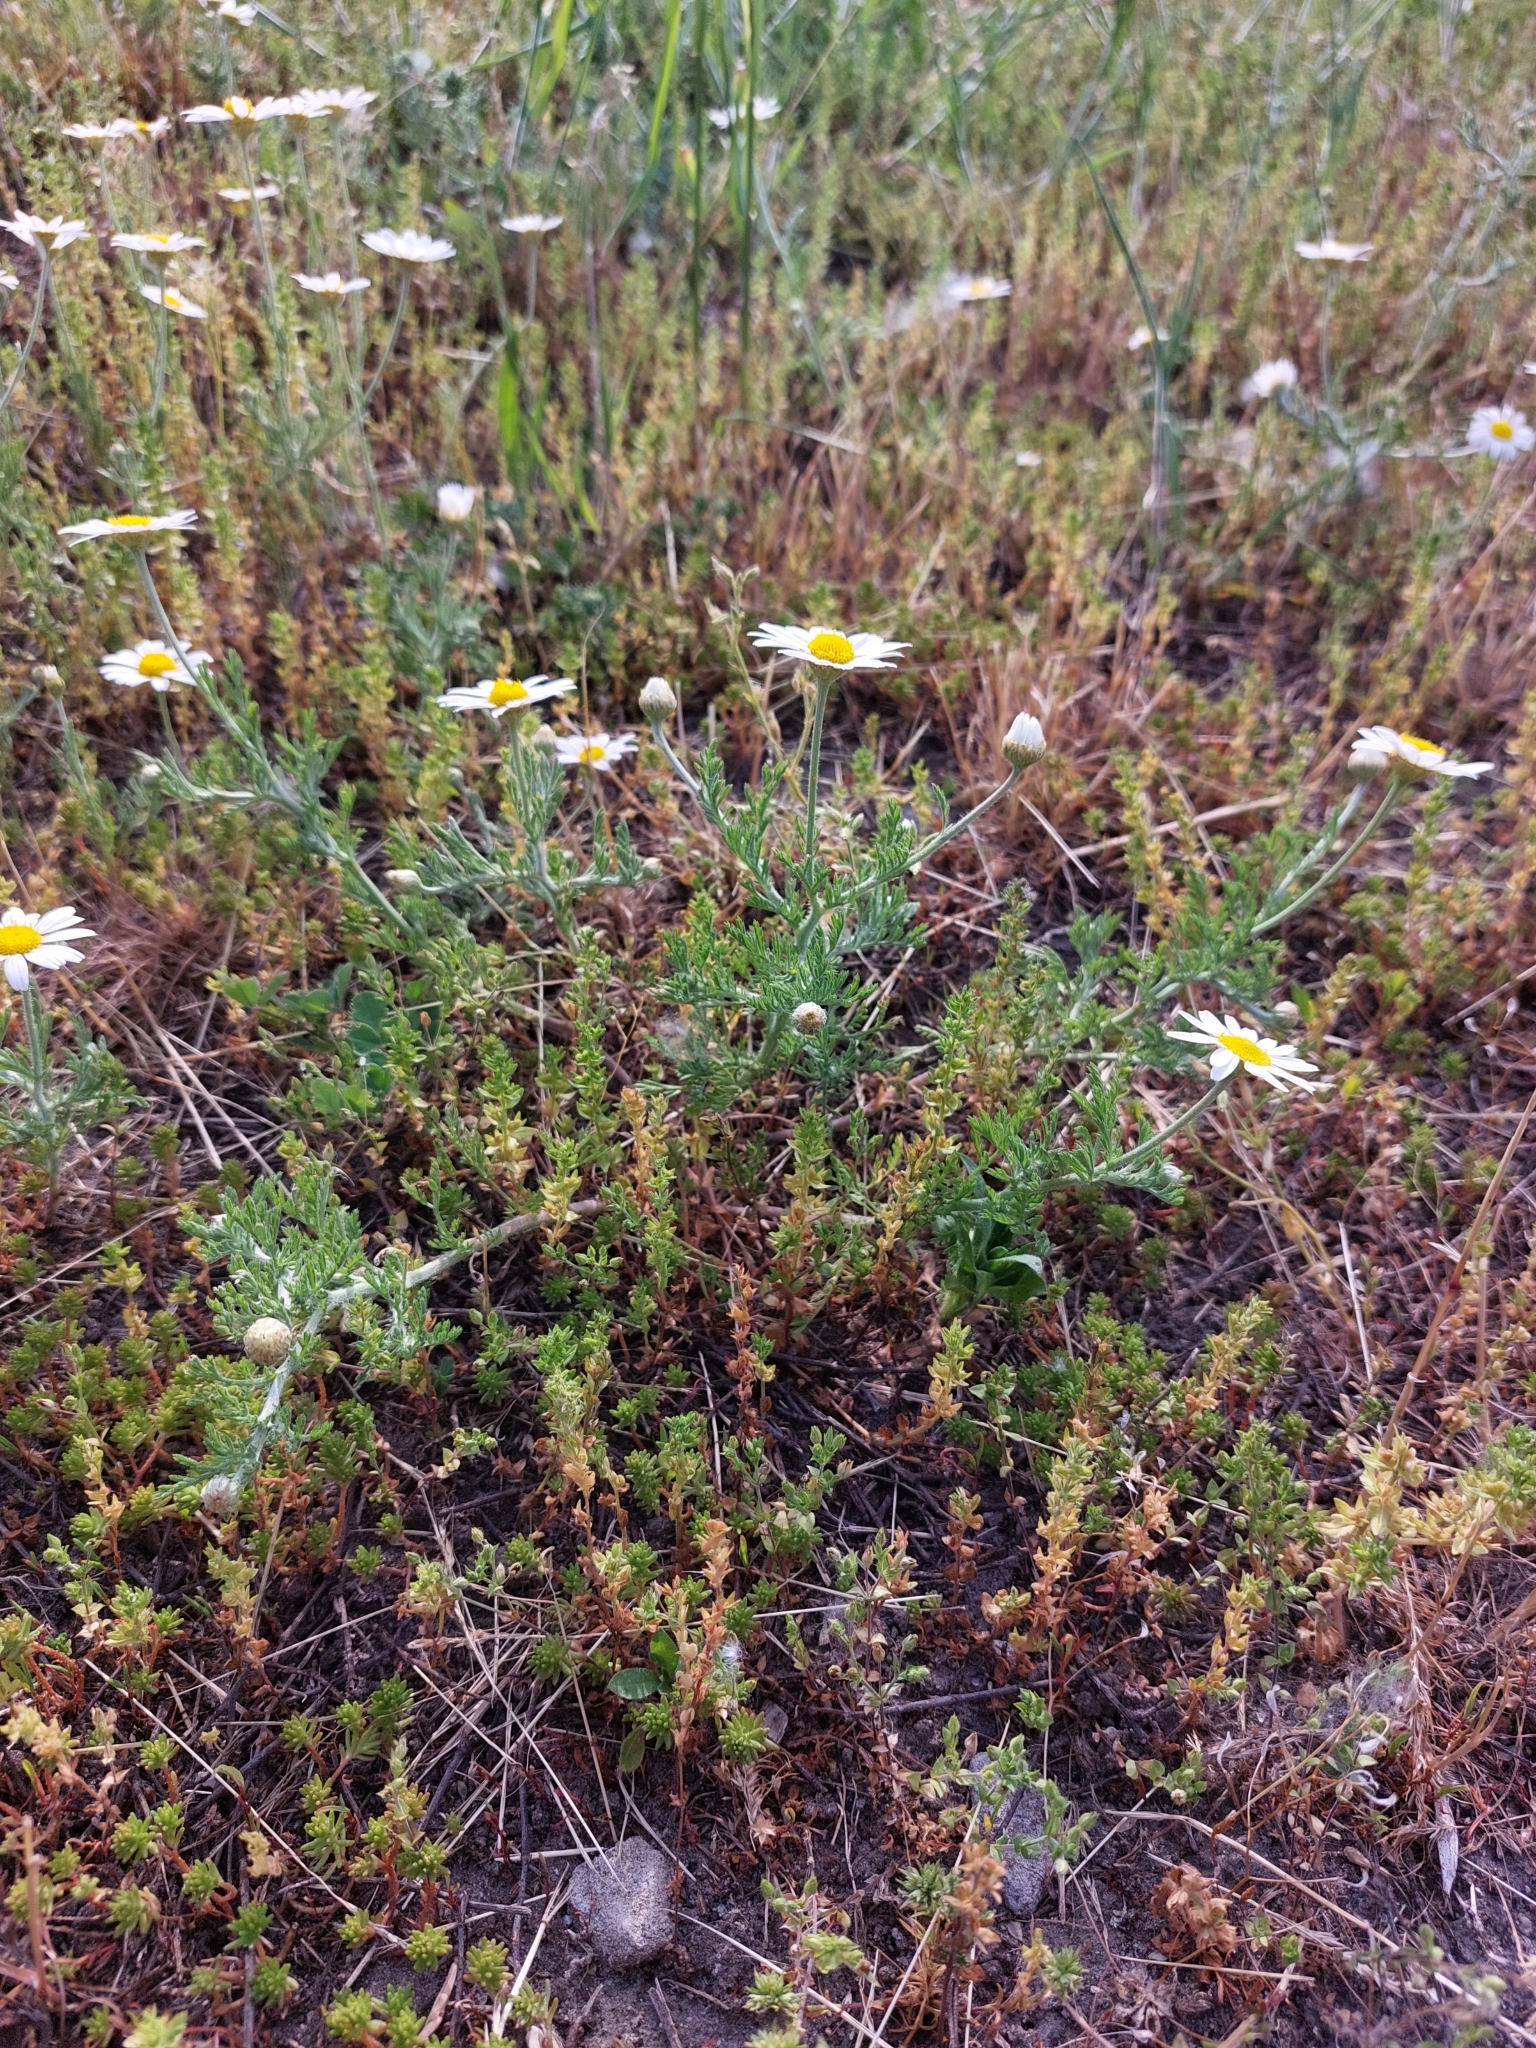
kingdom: Plantae
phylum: Tracheophyta
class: Magnoliopsida
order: Asterales
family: Asteraceae
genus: Anthemis
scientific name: Anthemis ruthenica
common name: Eastern chamomile
